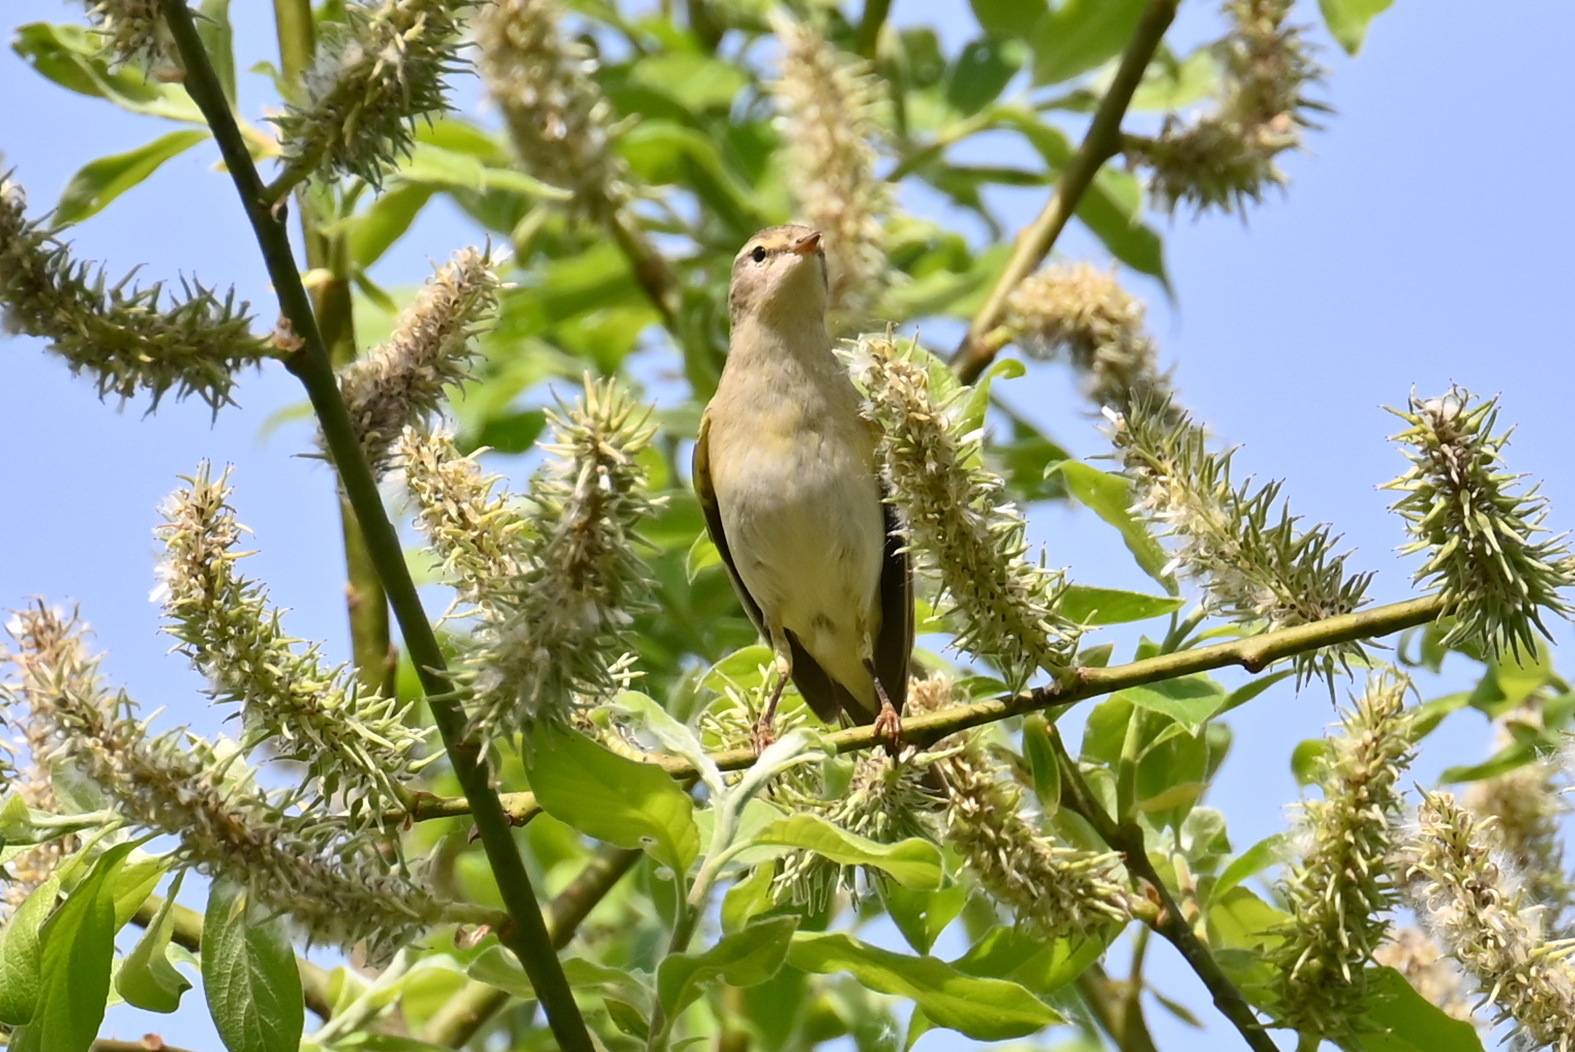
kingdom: Animalia
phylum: Chordata
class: Aves
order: Passeriformes
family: Phylloscopidae
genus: Phylloscopus
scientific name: Phylloscopus trochilus
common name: Willow warbler
